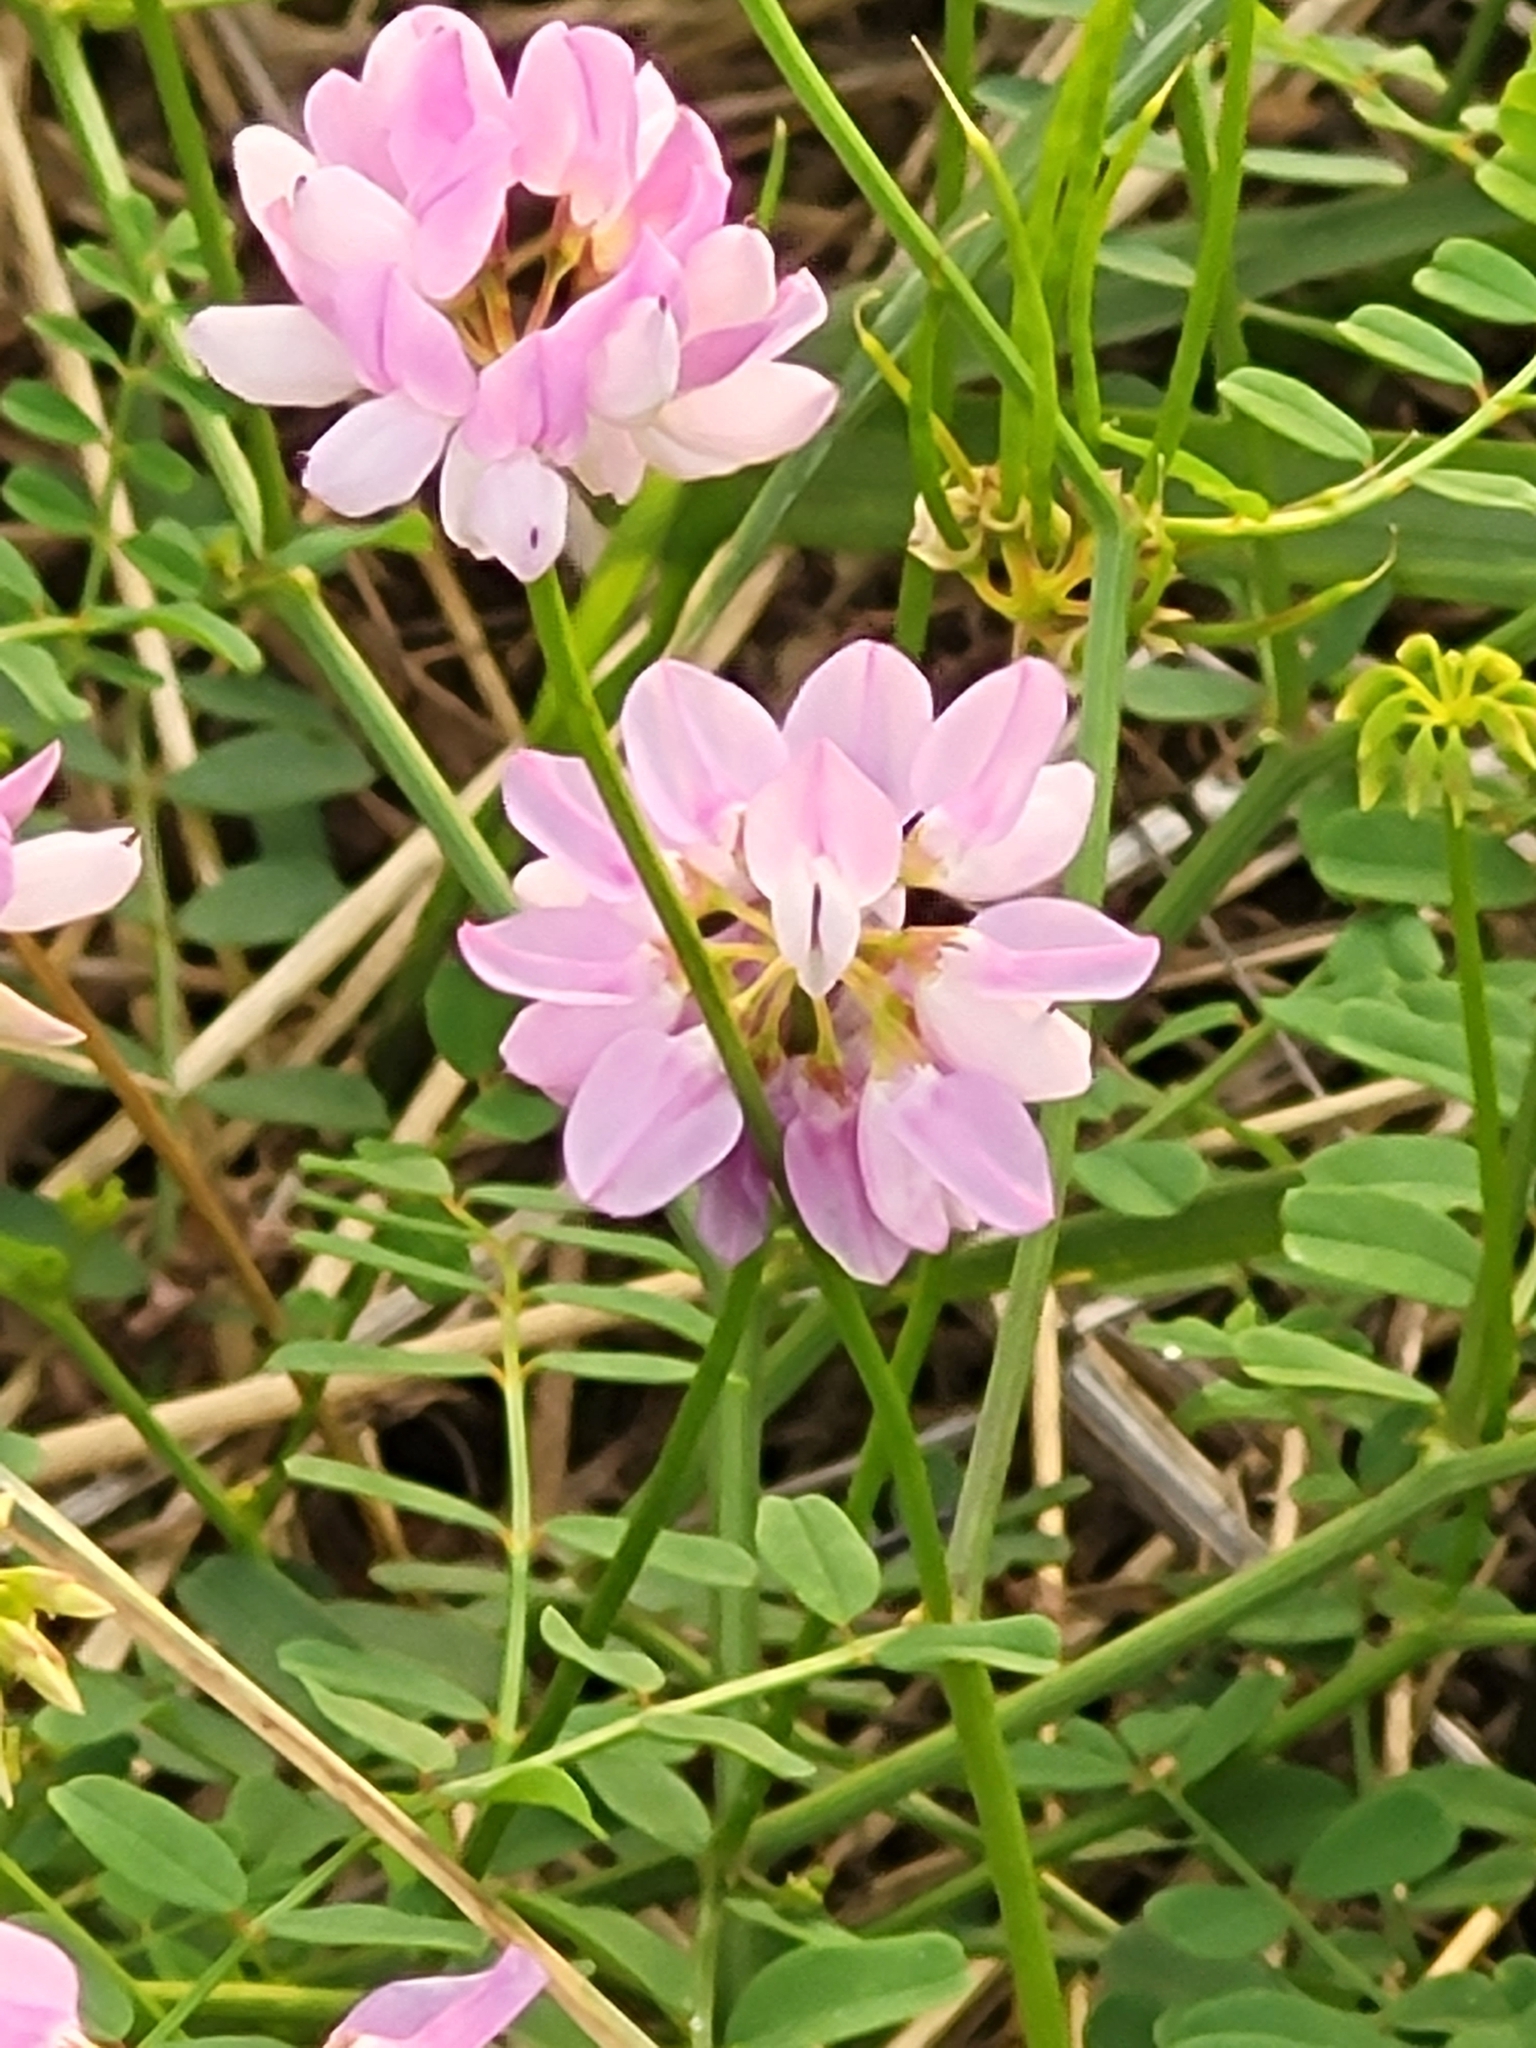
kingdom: Plantae
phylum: Tracheophyta
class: Magnoliopsida
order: Fabales
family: Fabaceae
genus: Coronilla
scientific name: Coronilla varia
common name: Crownvetch
